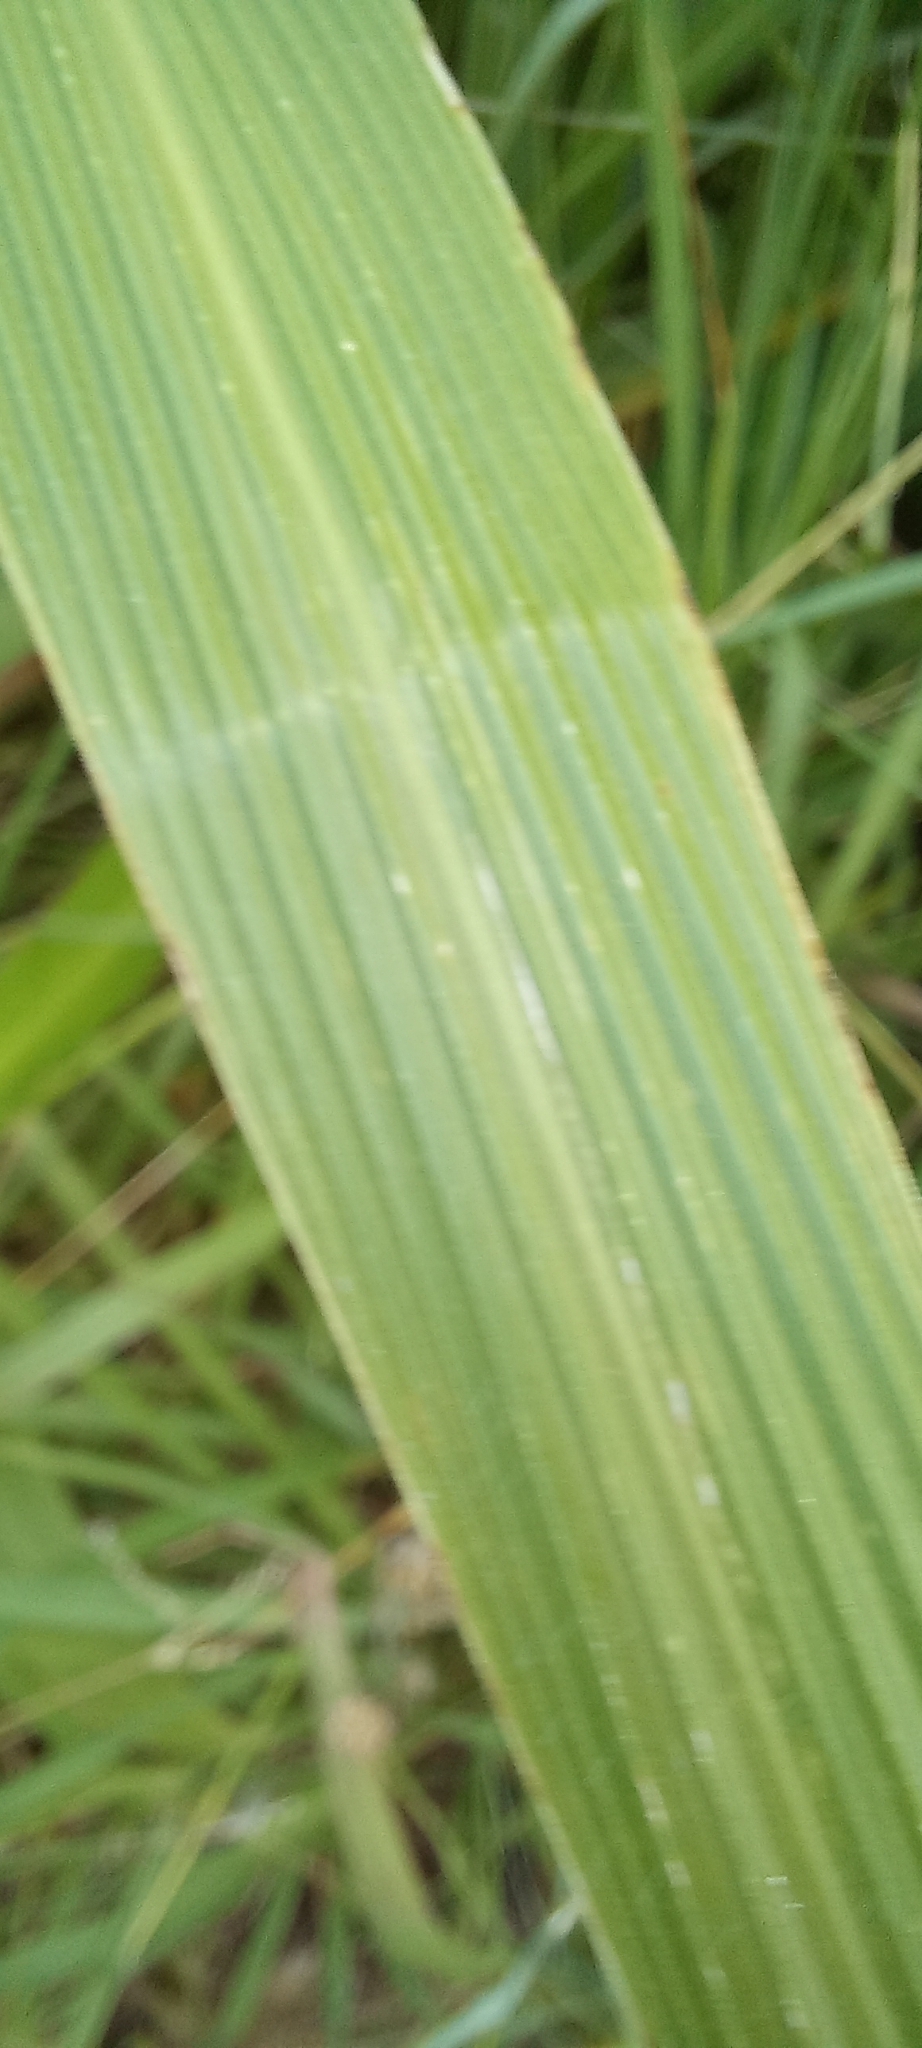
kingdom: Plantae
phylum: Tracheophyta
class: Liliopsida
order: Poales
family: Poaceae
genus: Setaria
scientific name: Setaria megaphylla
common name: Bigleaf bristlegrass
